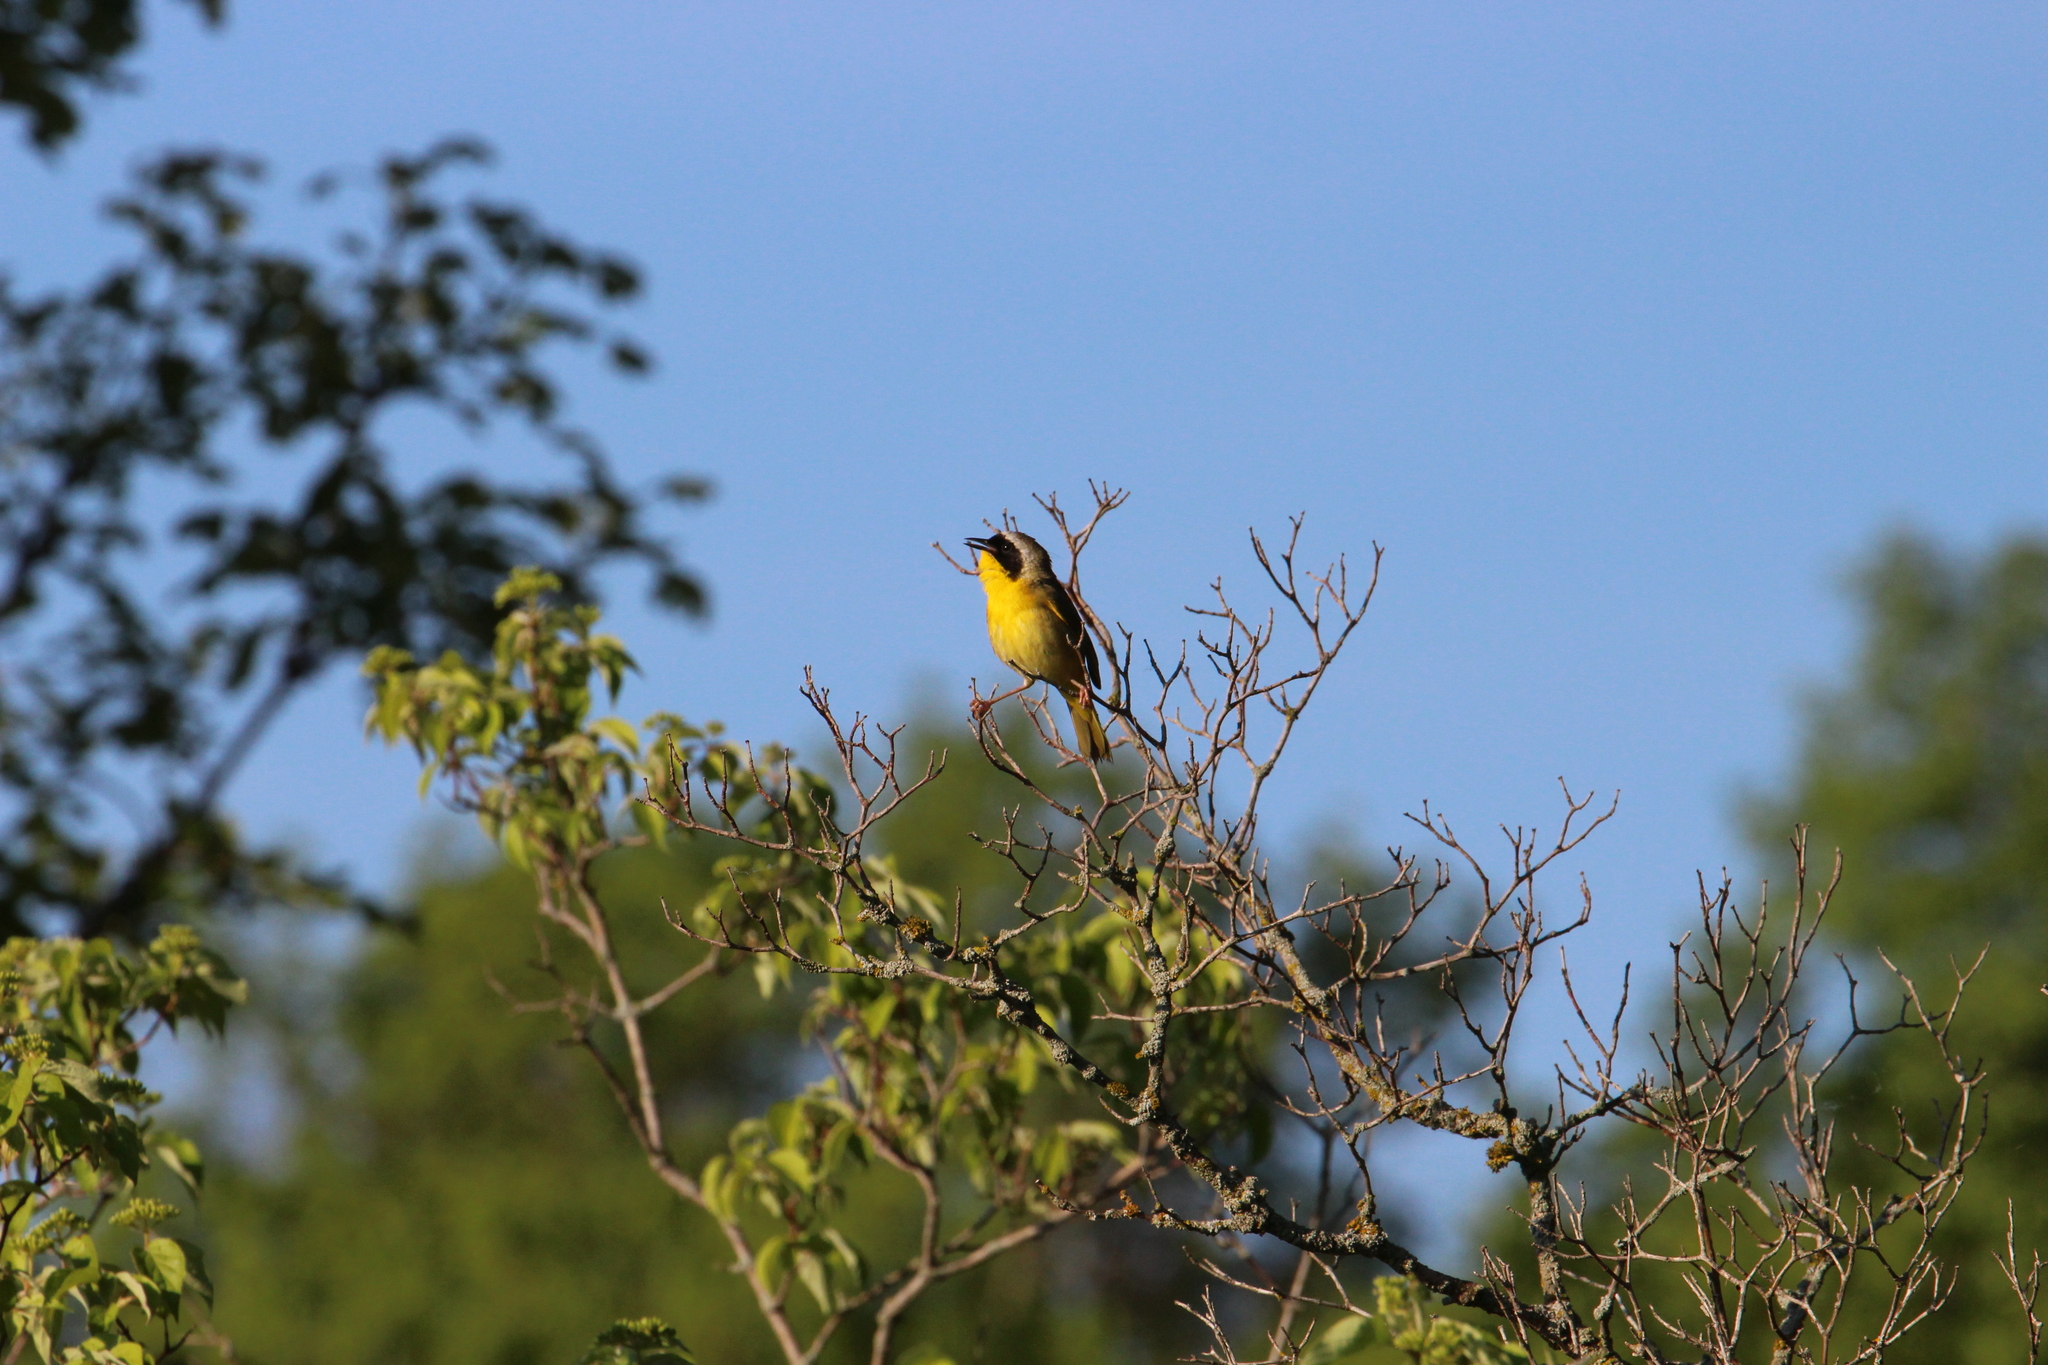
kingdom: Animalia
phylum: Chordata
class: Aves
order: Passeriformes
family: Parulidae
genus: Geothlypis
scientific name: Geothlypis trichas
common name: Common yellowthroat
